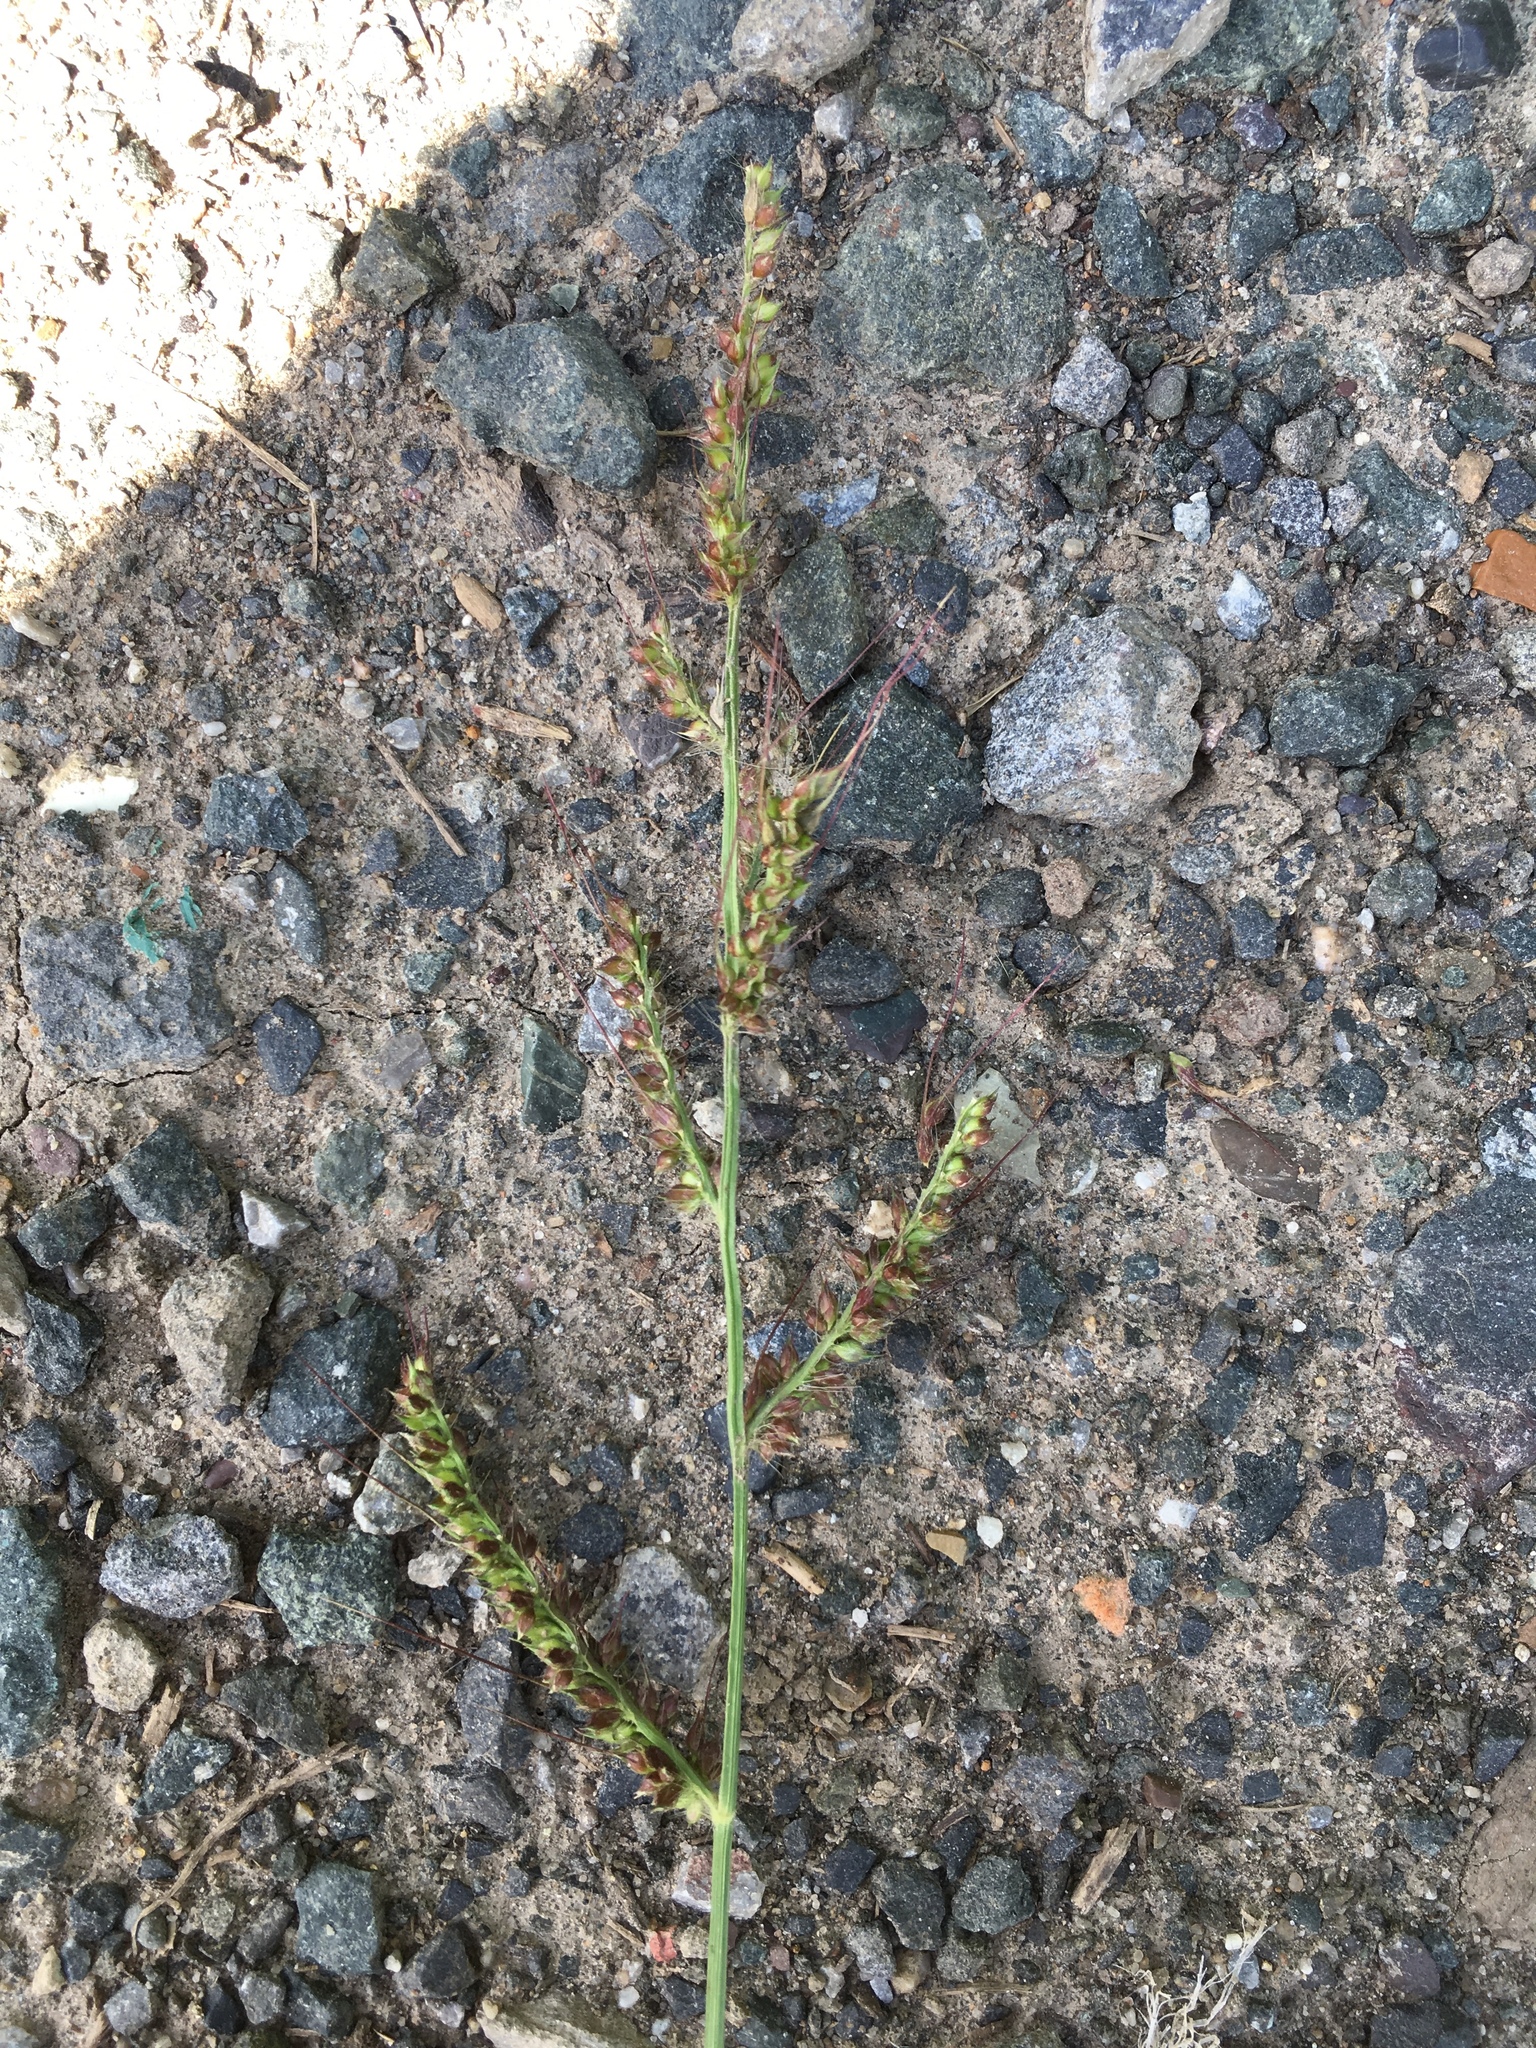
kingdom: Plantae
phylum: Tracheophyta
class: Liliopsida
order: Poales
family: Poaceae
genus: Echinochloa
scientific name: Echinochloa crus-galli
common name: Cockspur
